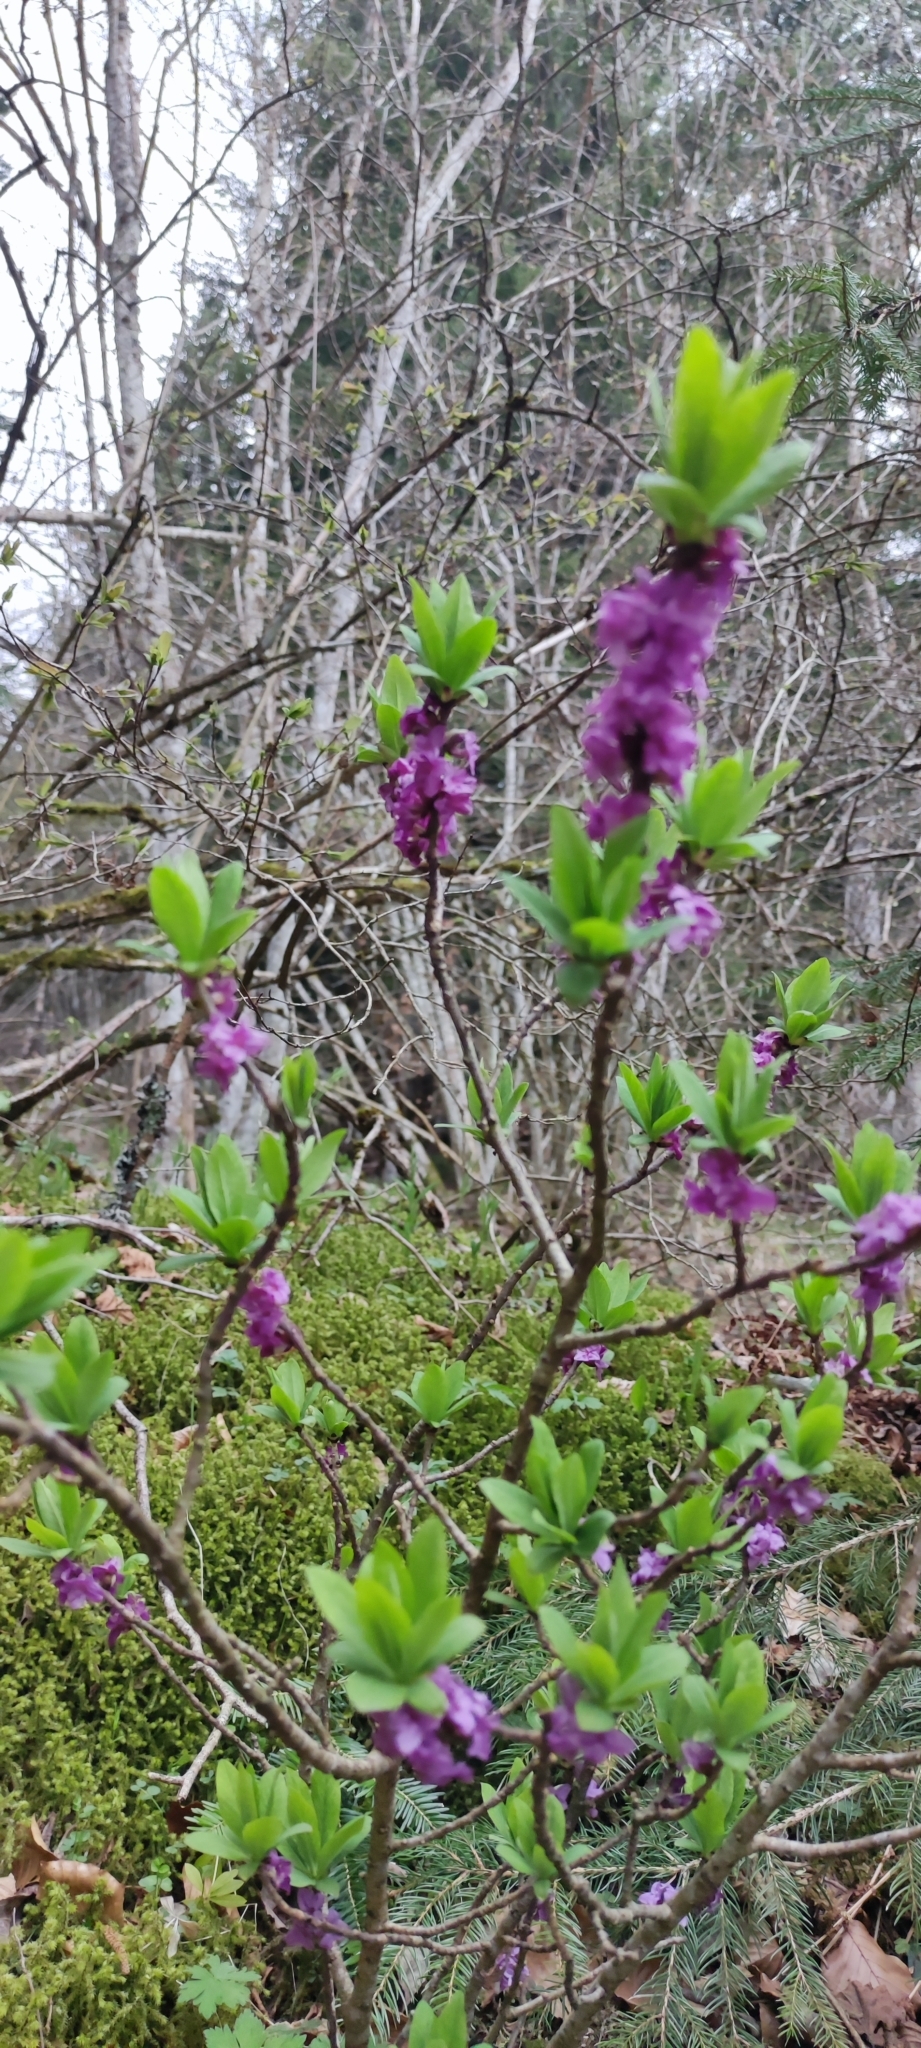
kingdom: Plantae
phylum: Tracheophyta
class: Magnoliopsida
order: Malvales
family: Thymelaeaceae
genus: Daphne
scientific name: Daphne mezereum
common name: Mezereon
